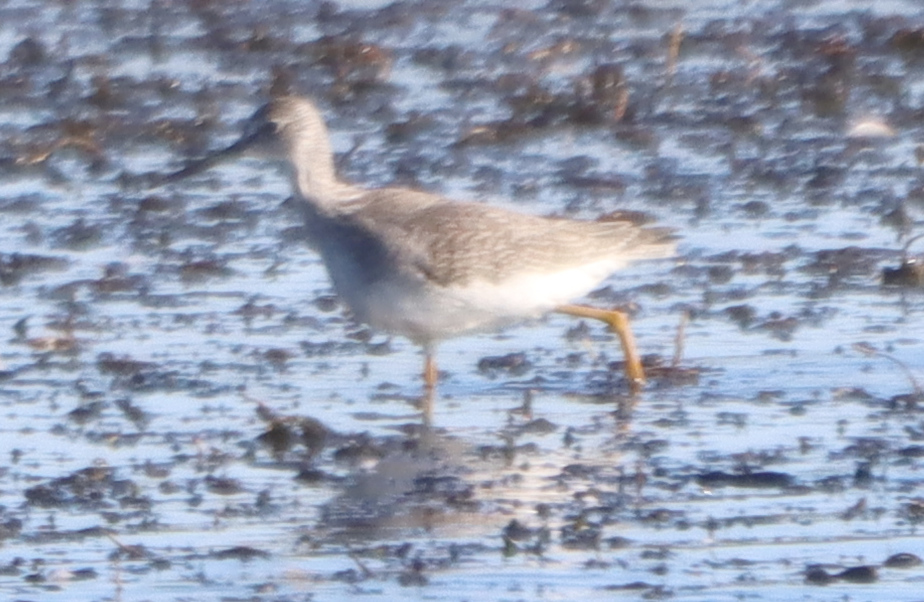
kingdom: Animalia
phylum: Chordata
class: Aves
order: Charadriiformes
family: Scolopacidae
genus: Tringa
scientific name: Tringa melanoleuca
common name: Greater yellowlegs
